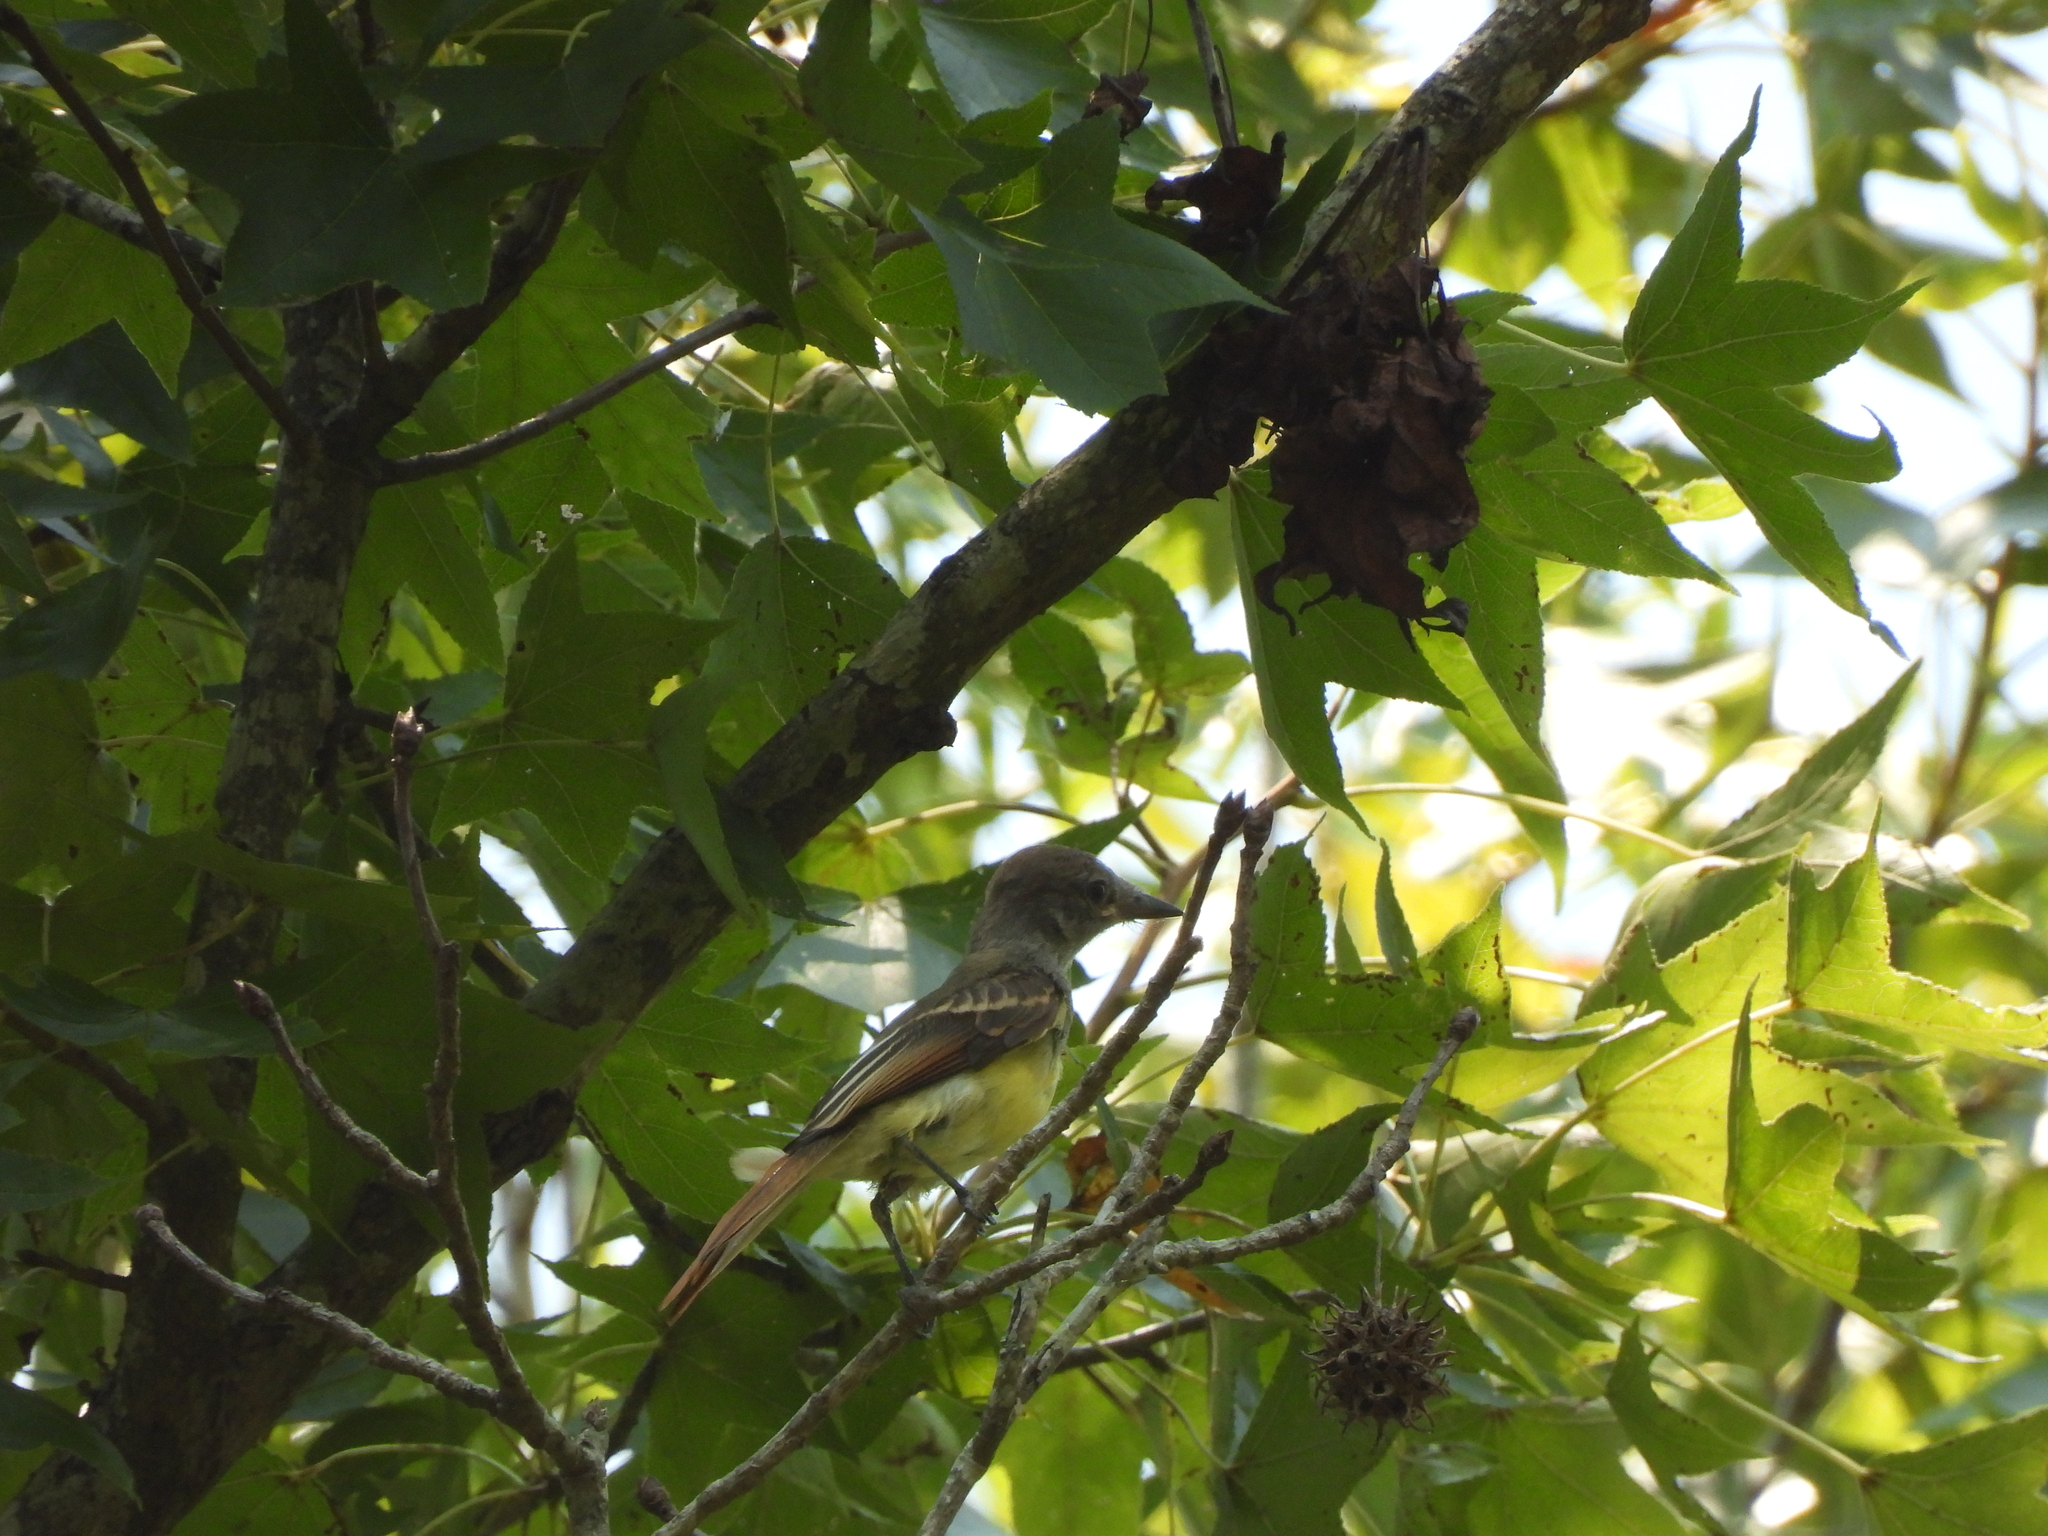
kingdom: Animalia
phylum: Chordata
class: Aves
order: Passeriformes
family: Tyrannidae
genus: Myiarchus
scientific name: Myiarchus crinitus
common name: Great crested flycatcher
